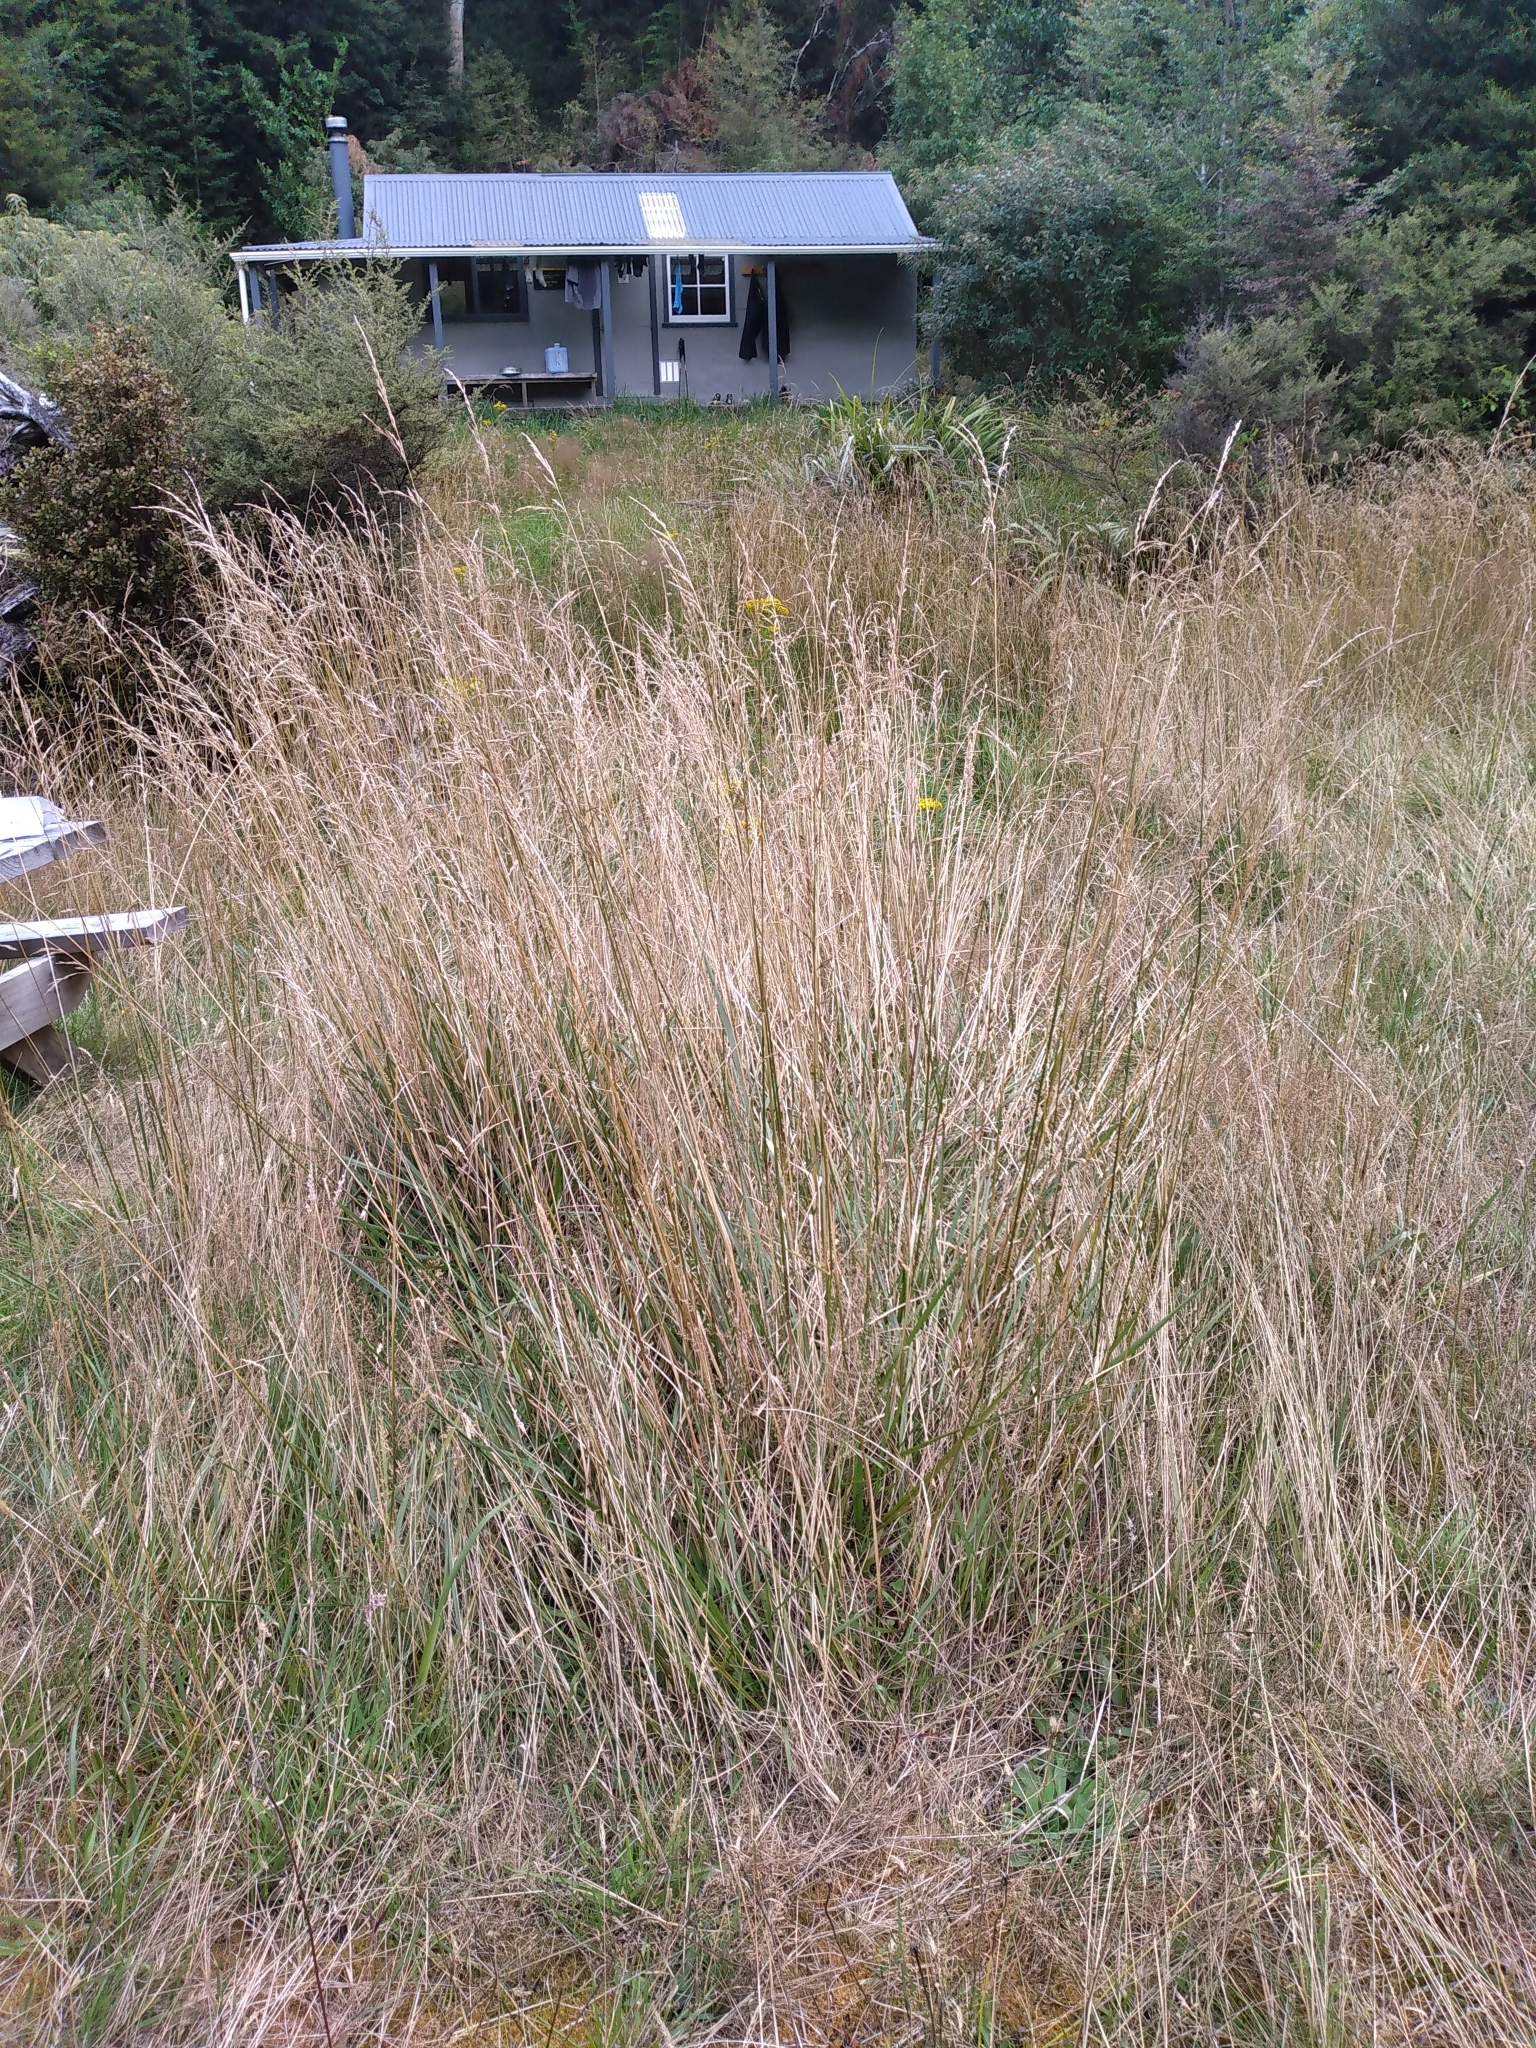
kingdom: Plantae
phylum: Tracheophyta
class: Liliopsida
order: Poales
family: Poaceae
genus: Lolium
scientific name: Lolium arundinaceum
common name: Reed fescue
